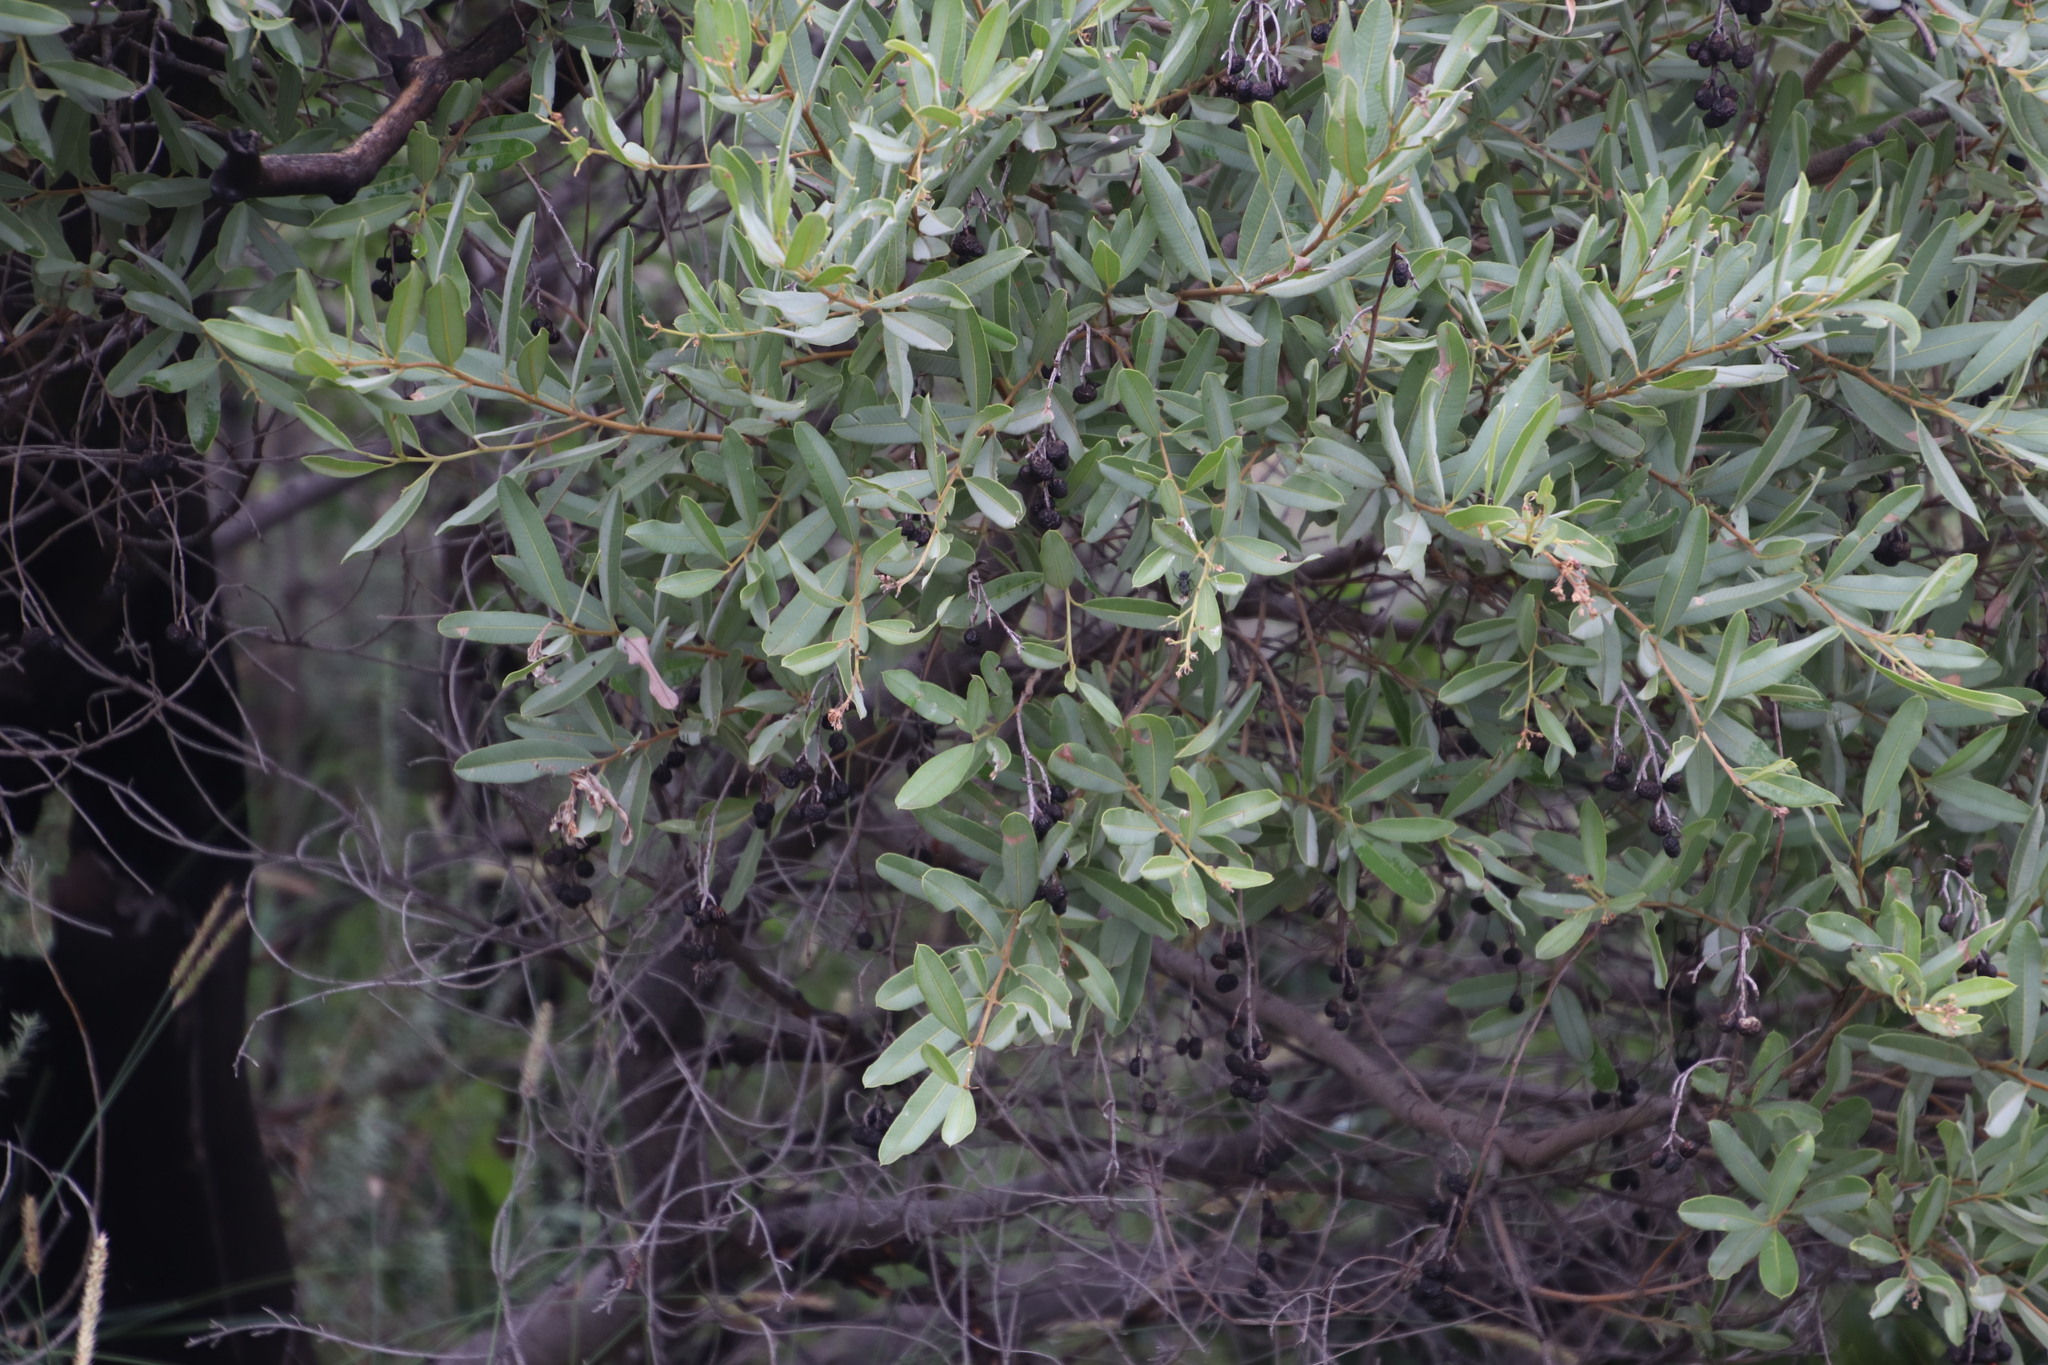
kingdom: Plantae
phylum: Tracheophyta
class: Magnoliopsida
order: Sapindales
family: Anacardiaceae
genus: Ozoroa
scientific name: Ozoroa paniculosa
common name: Bushveld ozoroa
